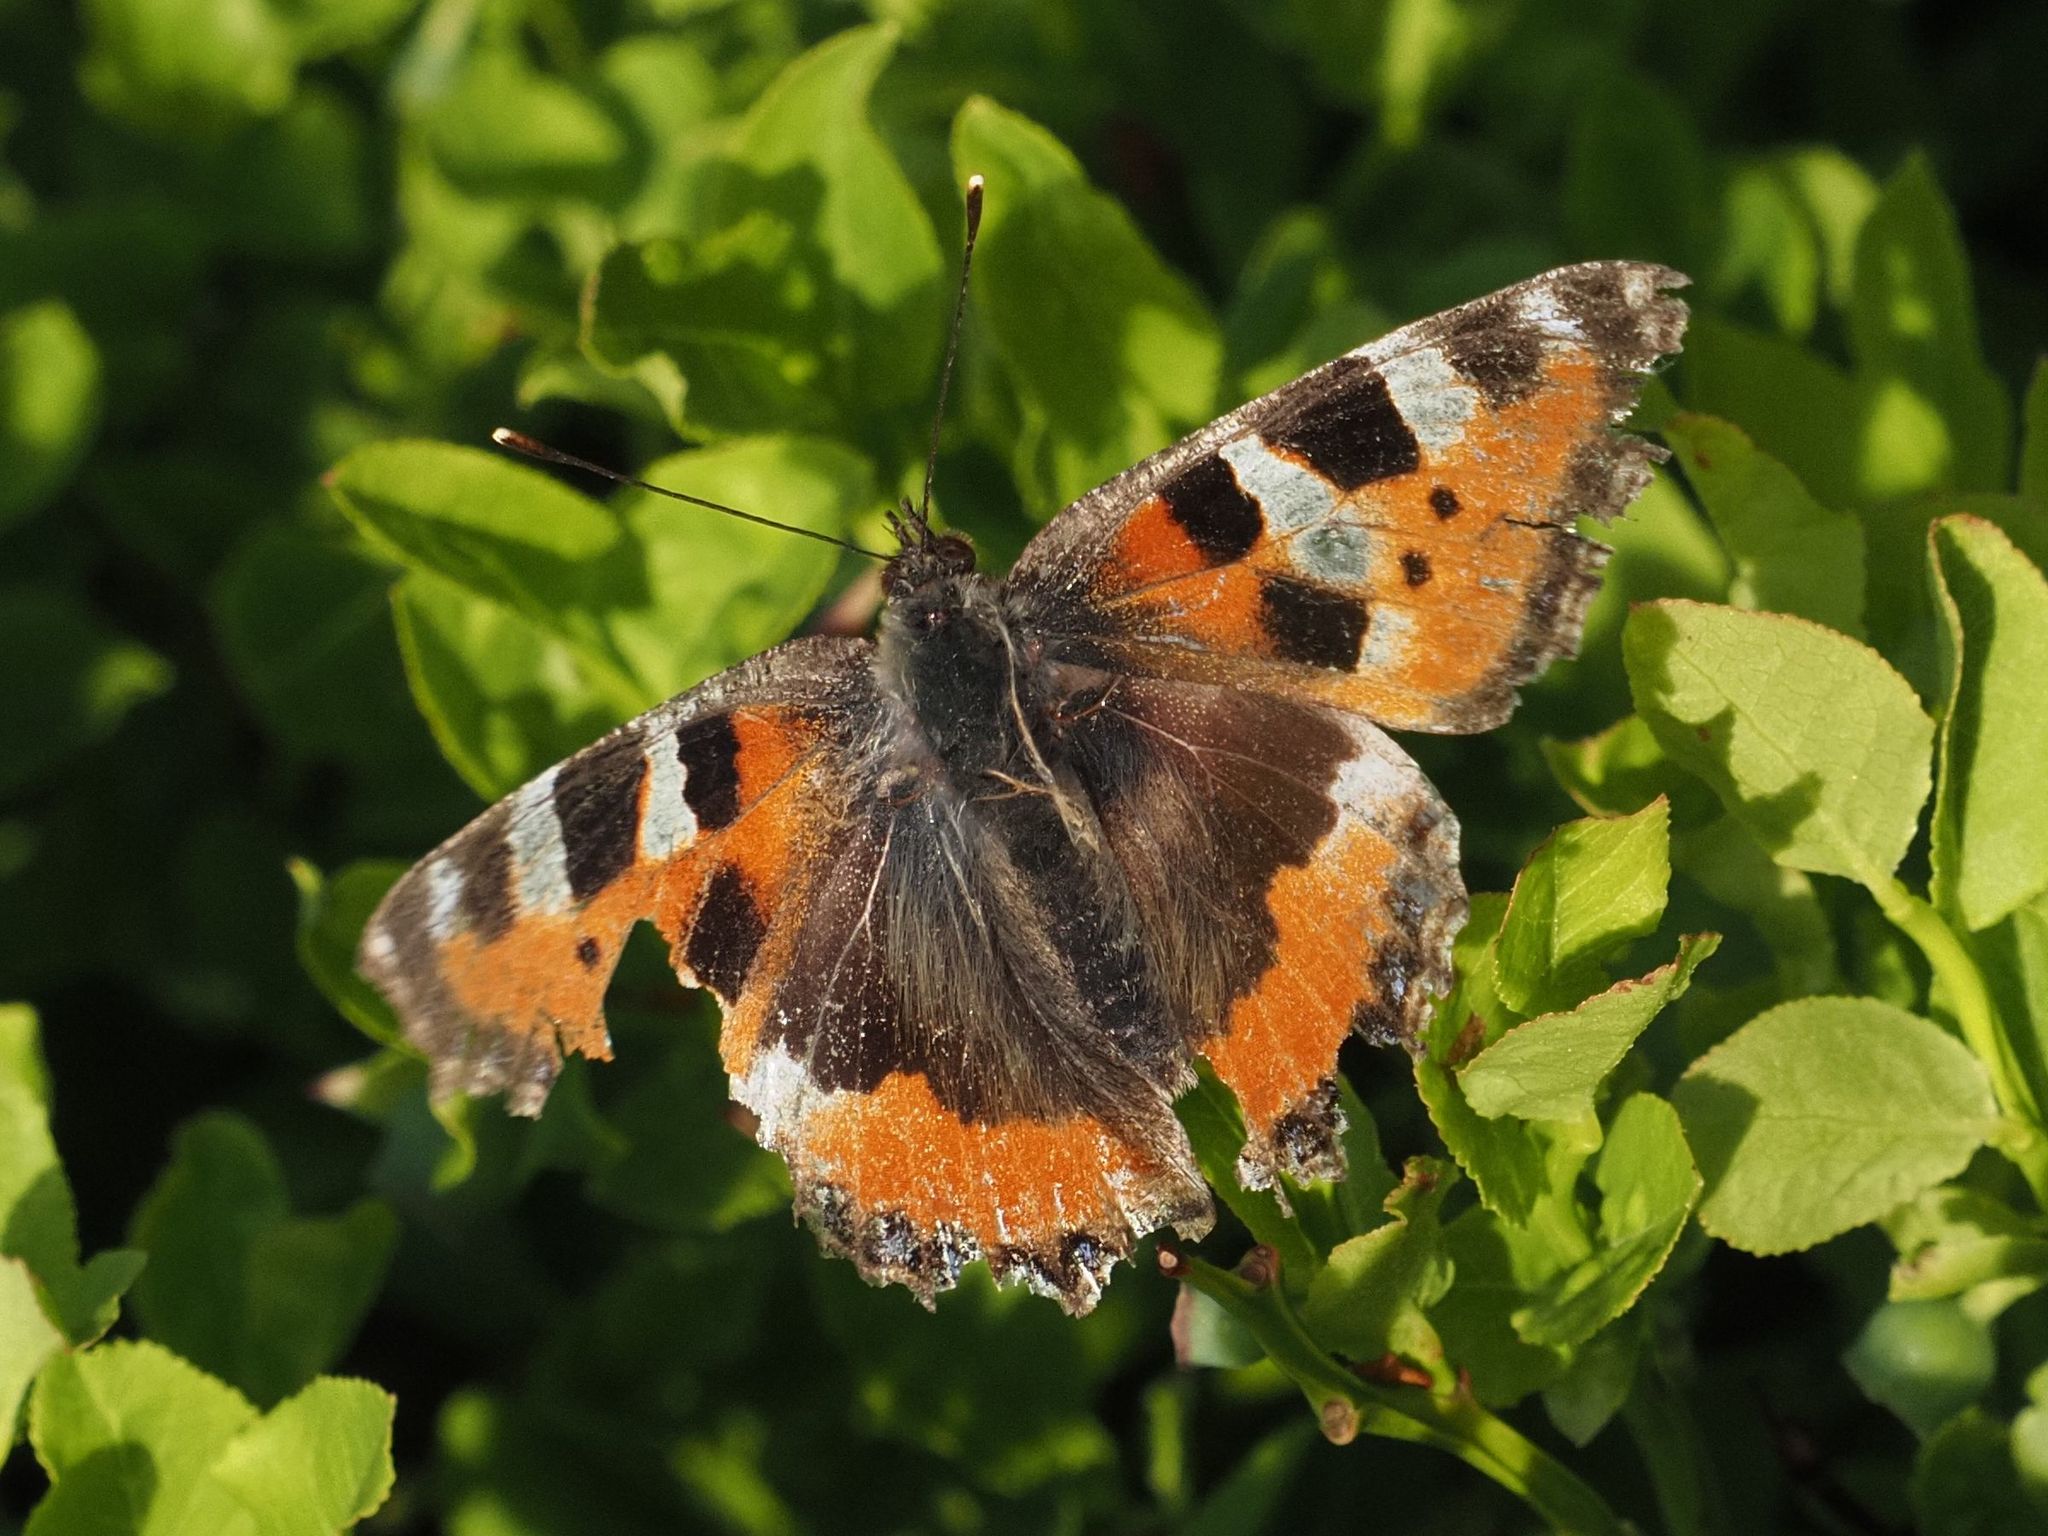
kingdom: Animalia
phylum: Arthropoda
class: Insecta
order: Lepidoptera
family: Nymphalidae
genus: Aglais
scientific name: Aglais urticae
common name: Small tortoiseshell
